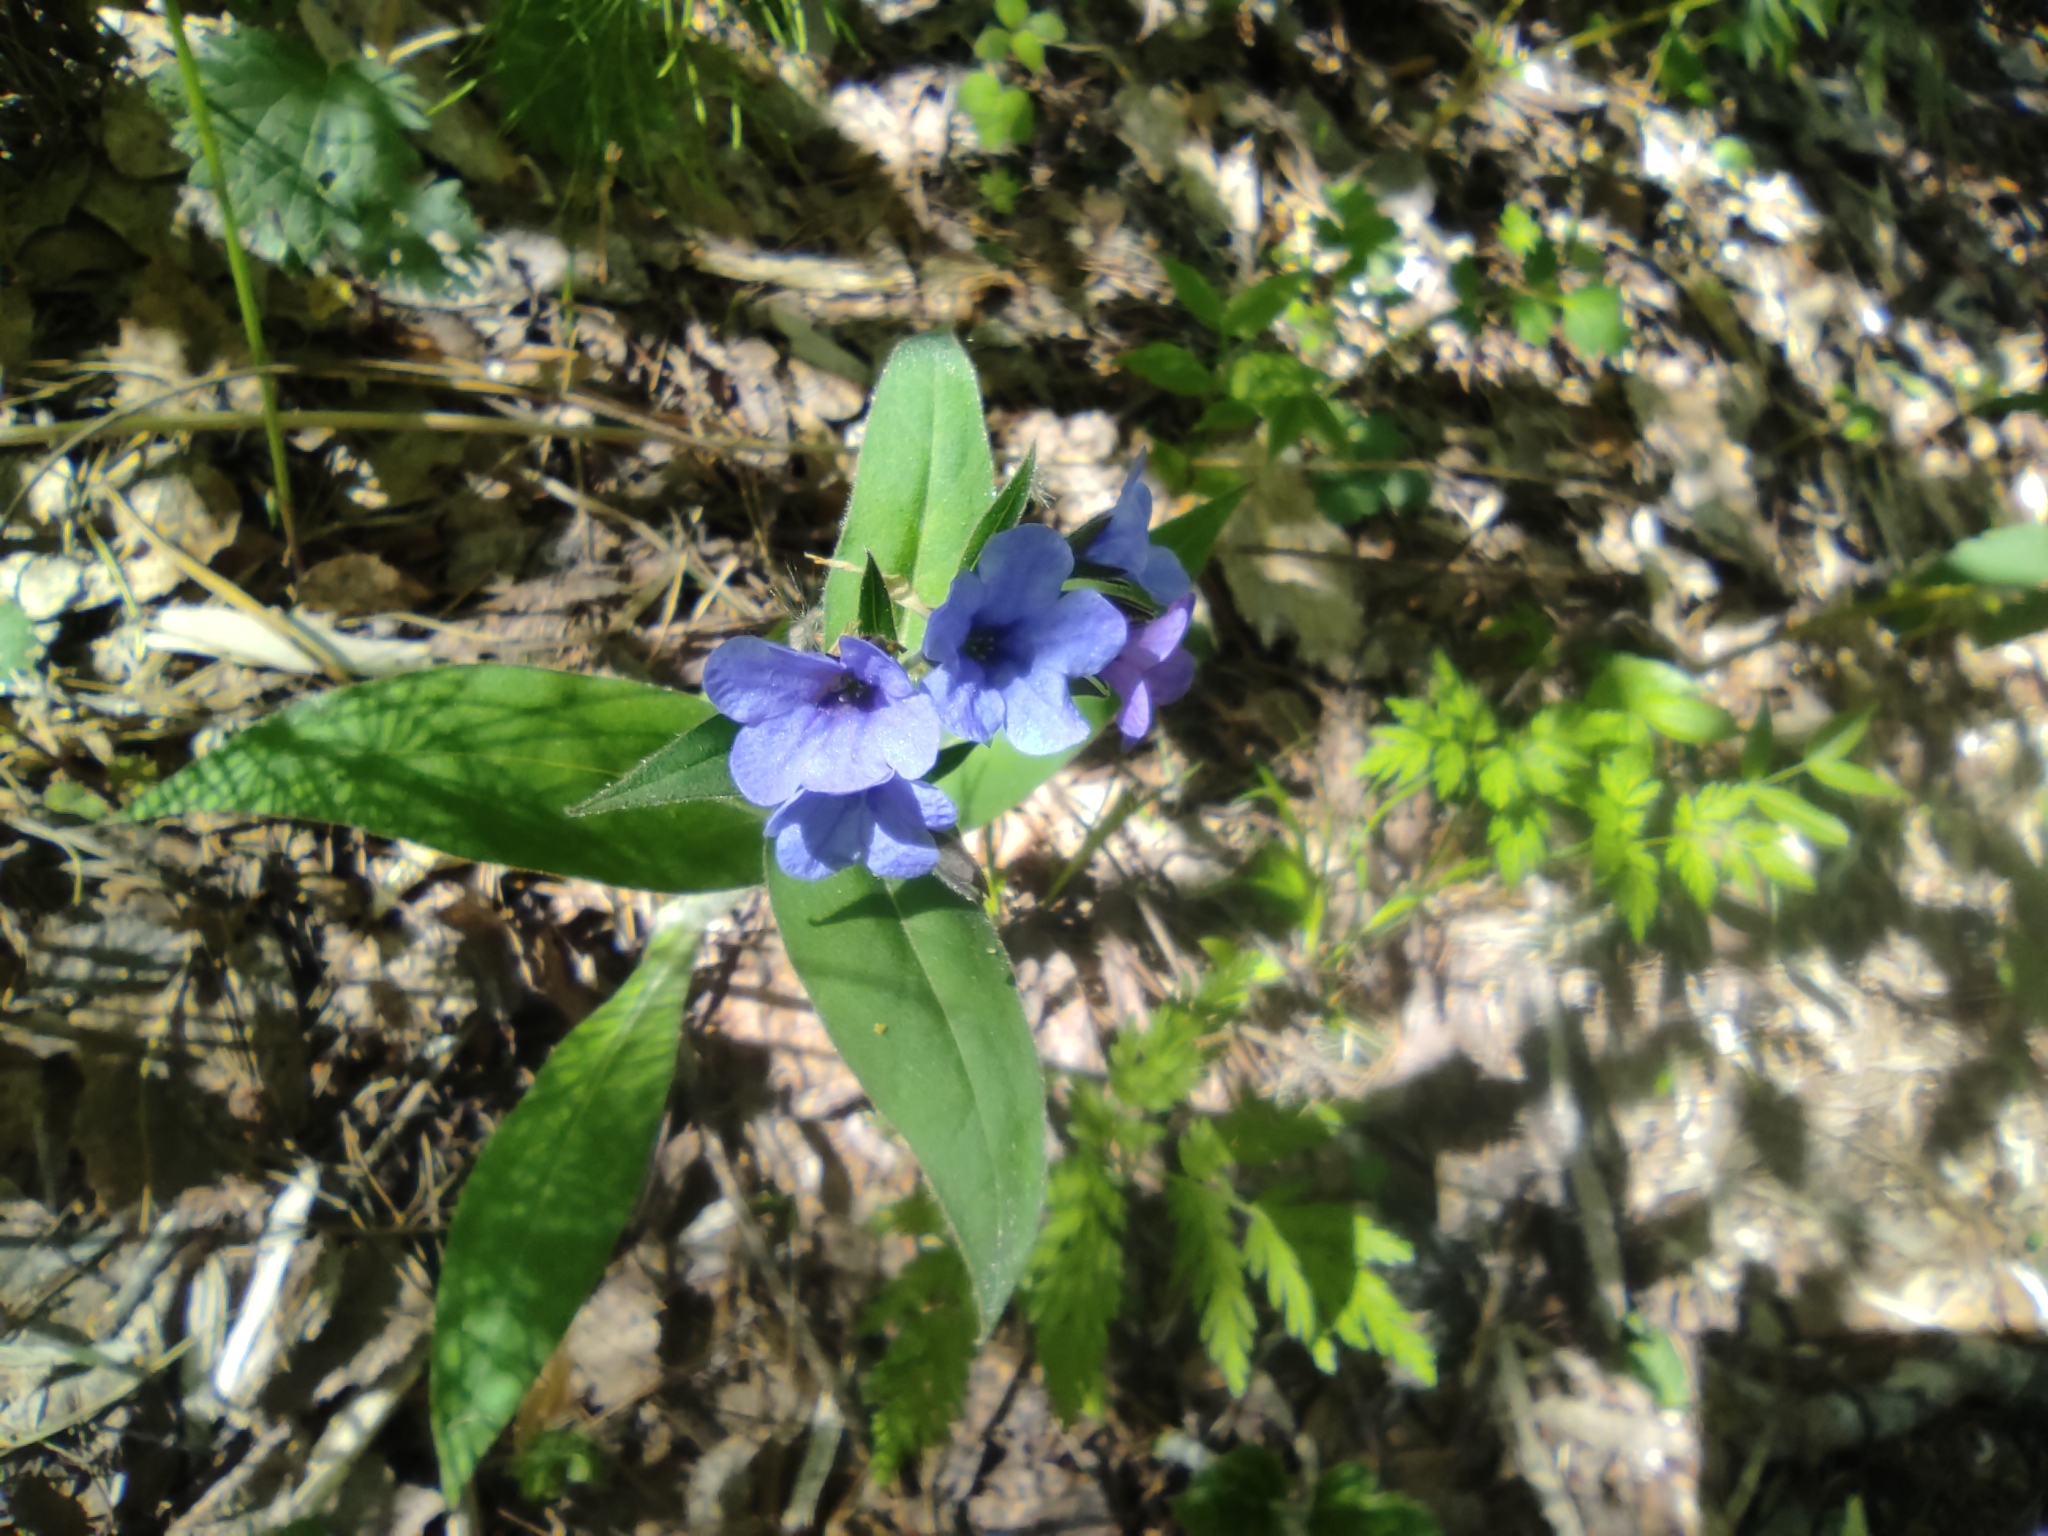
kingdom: Plantae
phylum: Tracheophyta
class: Magnoliopsida
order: Boraginales
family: Boraginaceae
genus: Pulmonaria
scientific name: Pulmonaria mollis
